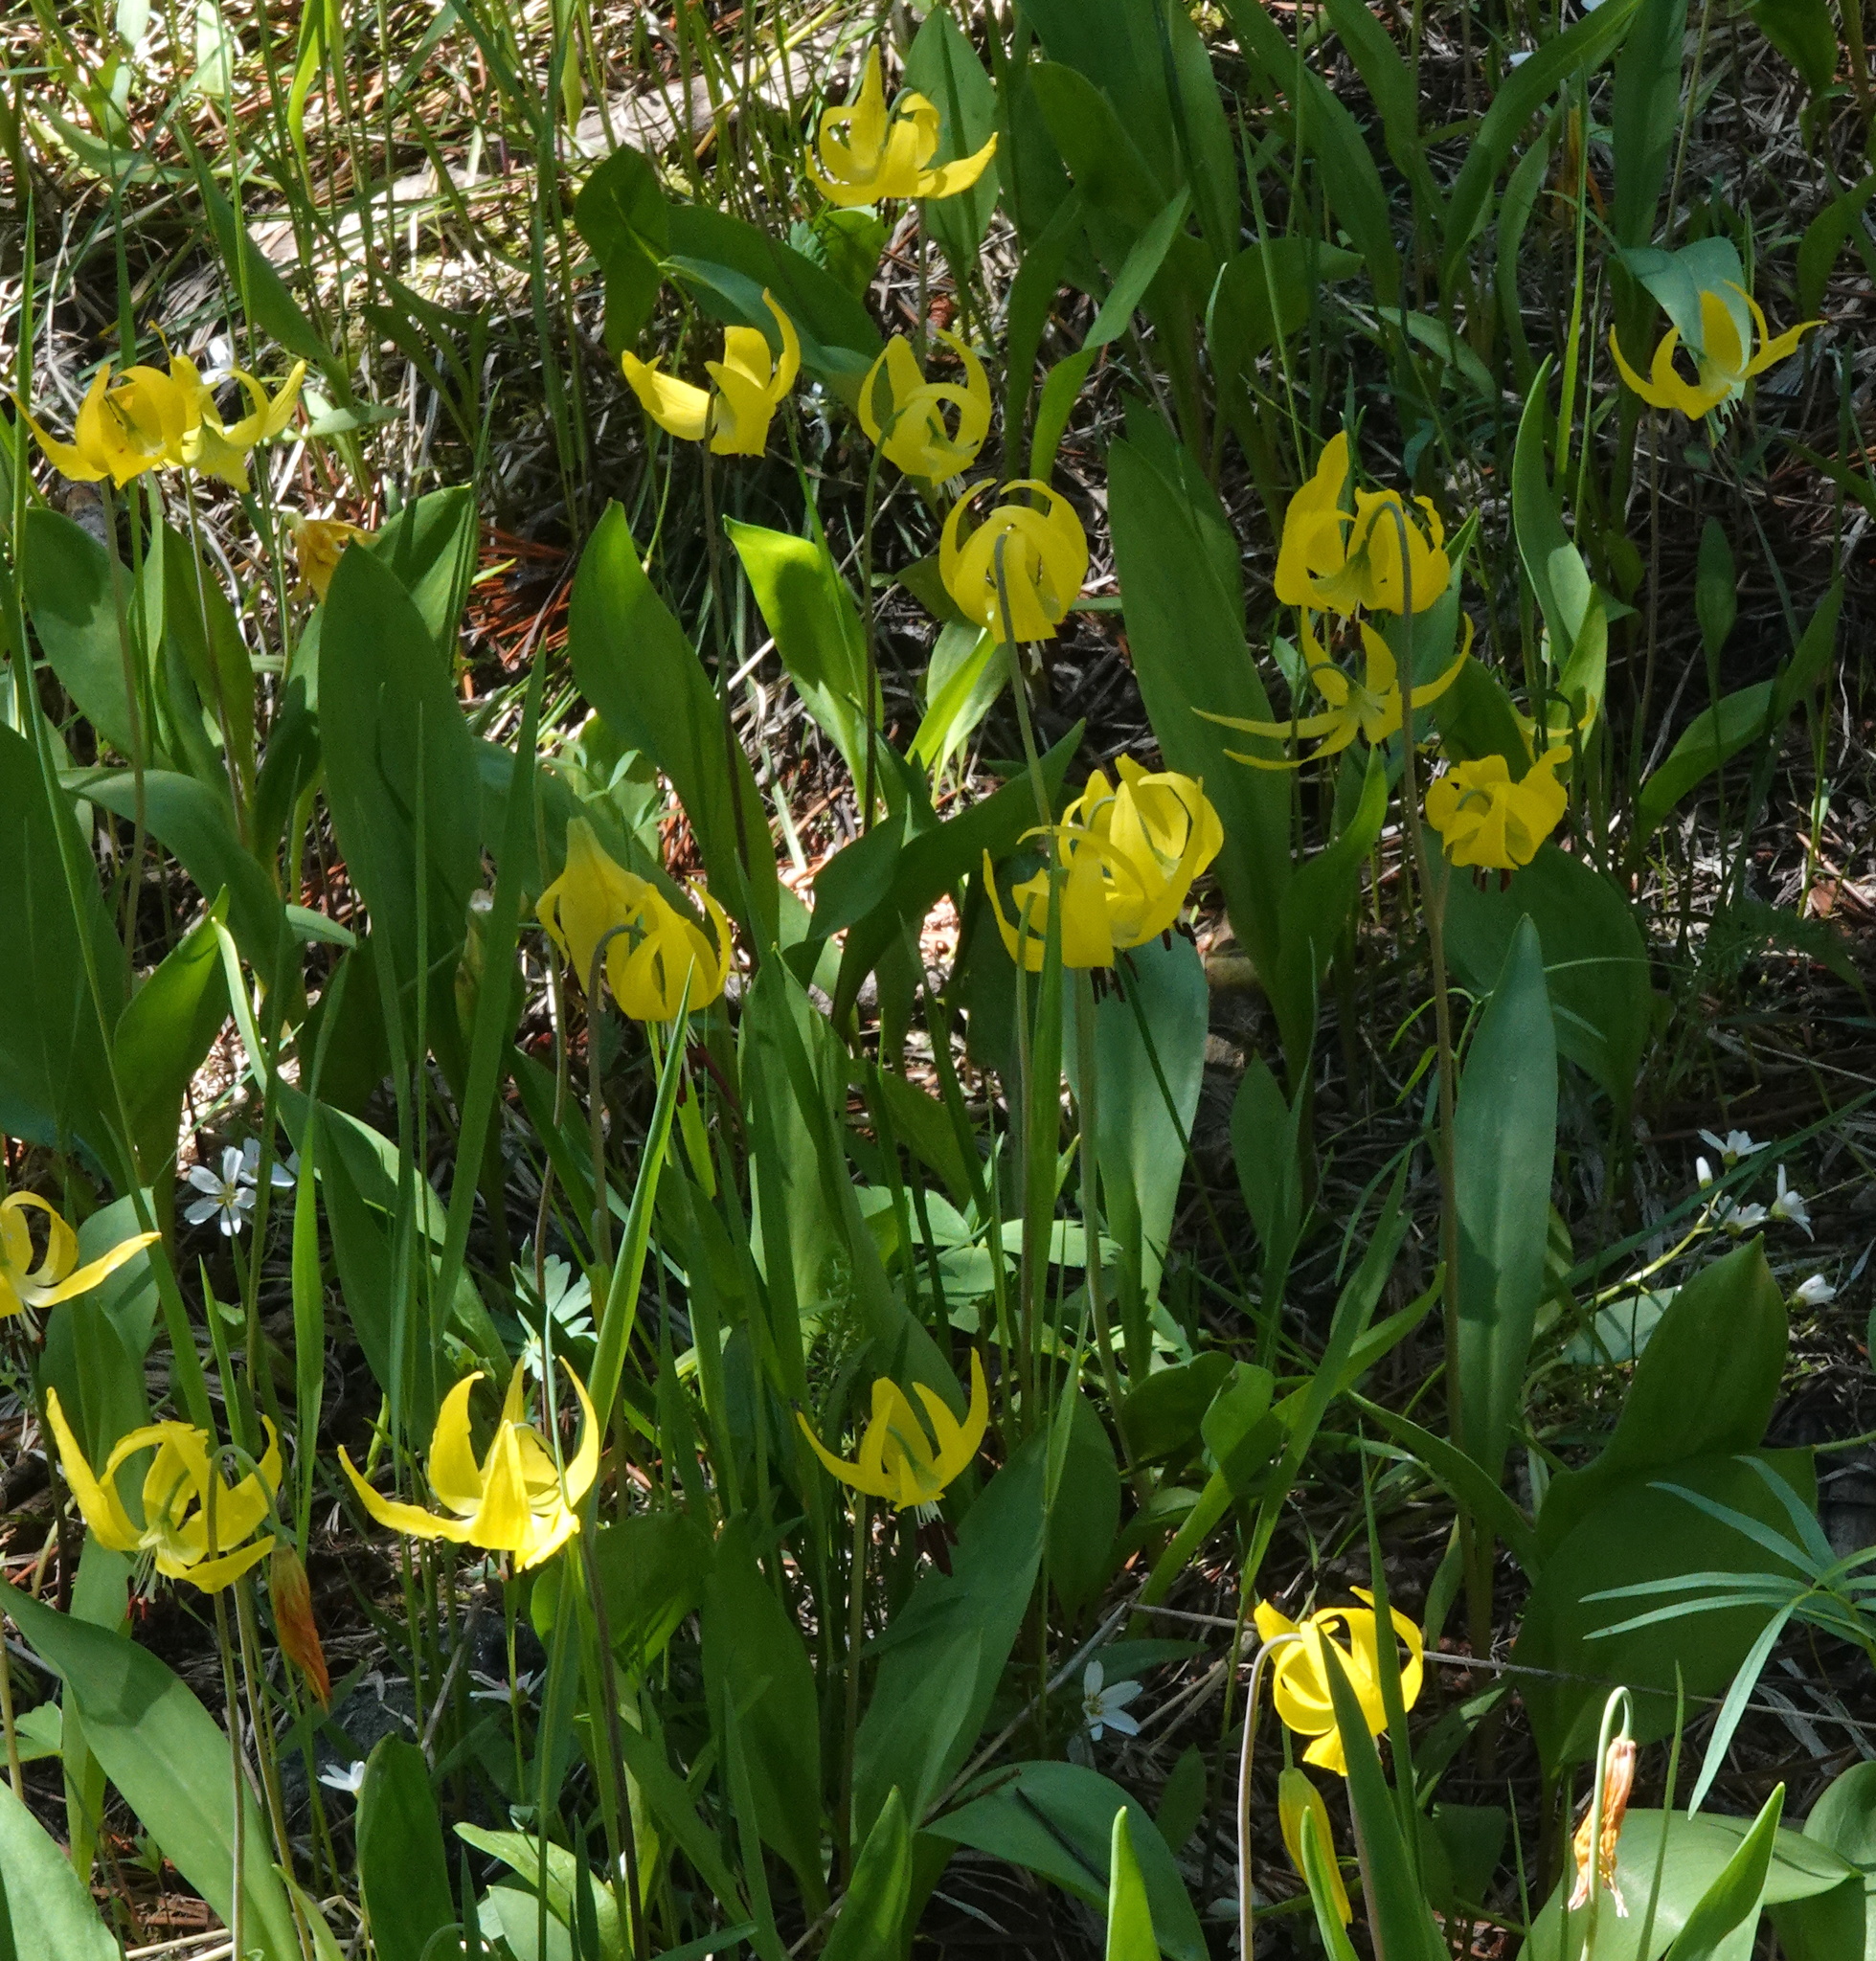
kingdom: Plantae
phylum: Tracheophyta
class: Liliopsida
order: Liliales
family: Liliaceae
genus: Erythronium
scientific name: Erythronium grandiflorum
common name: Avalanche-lily
